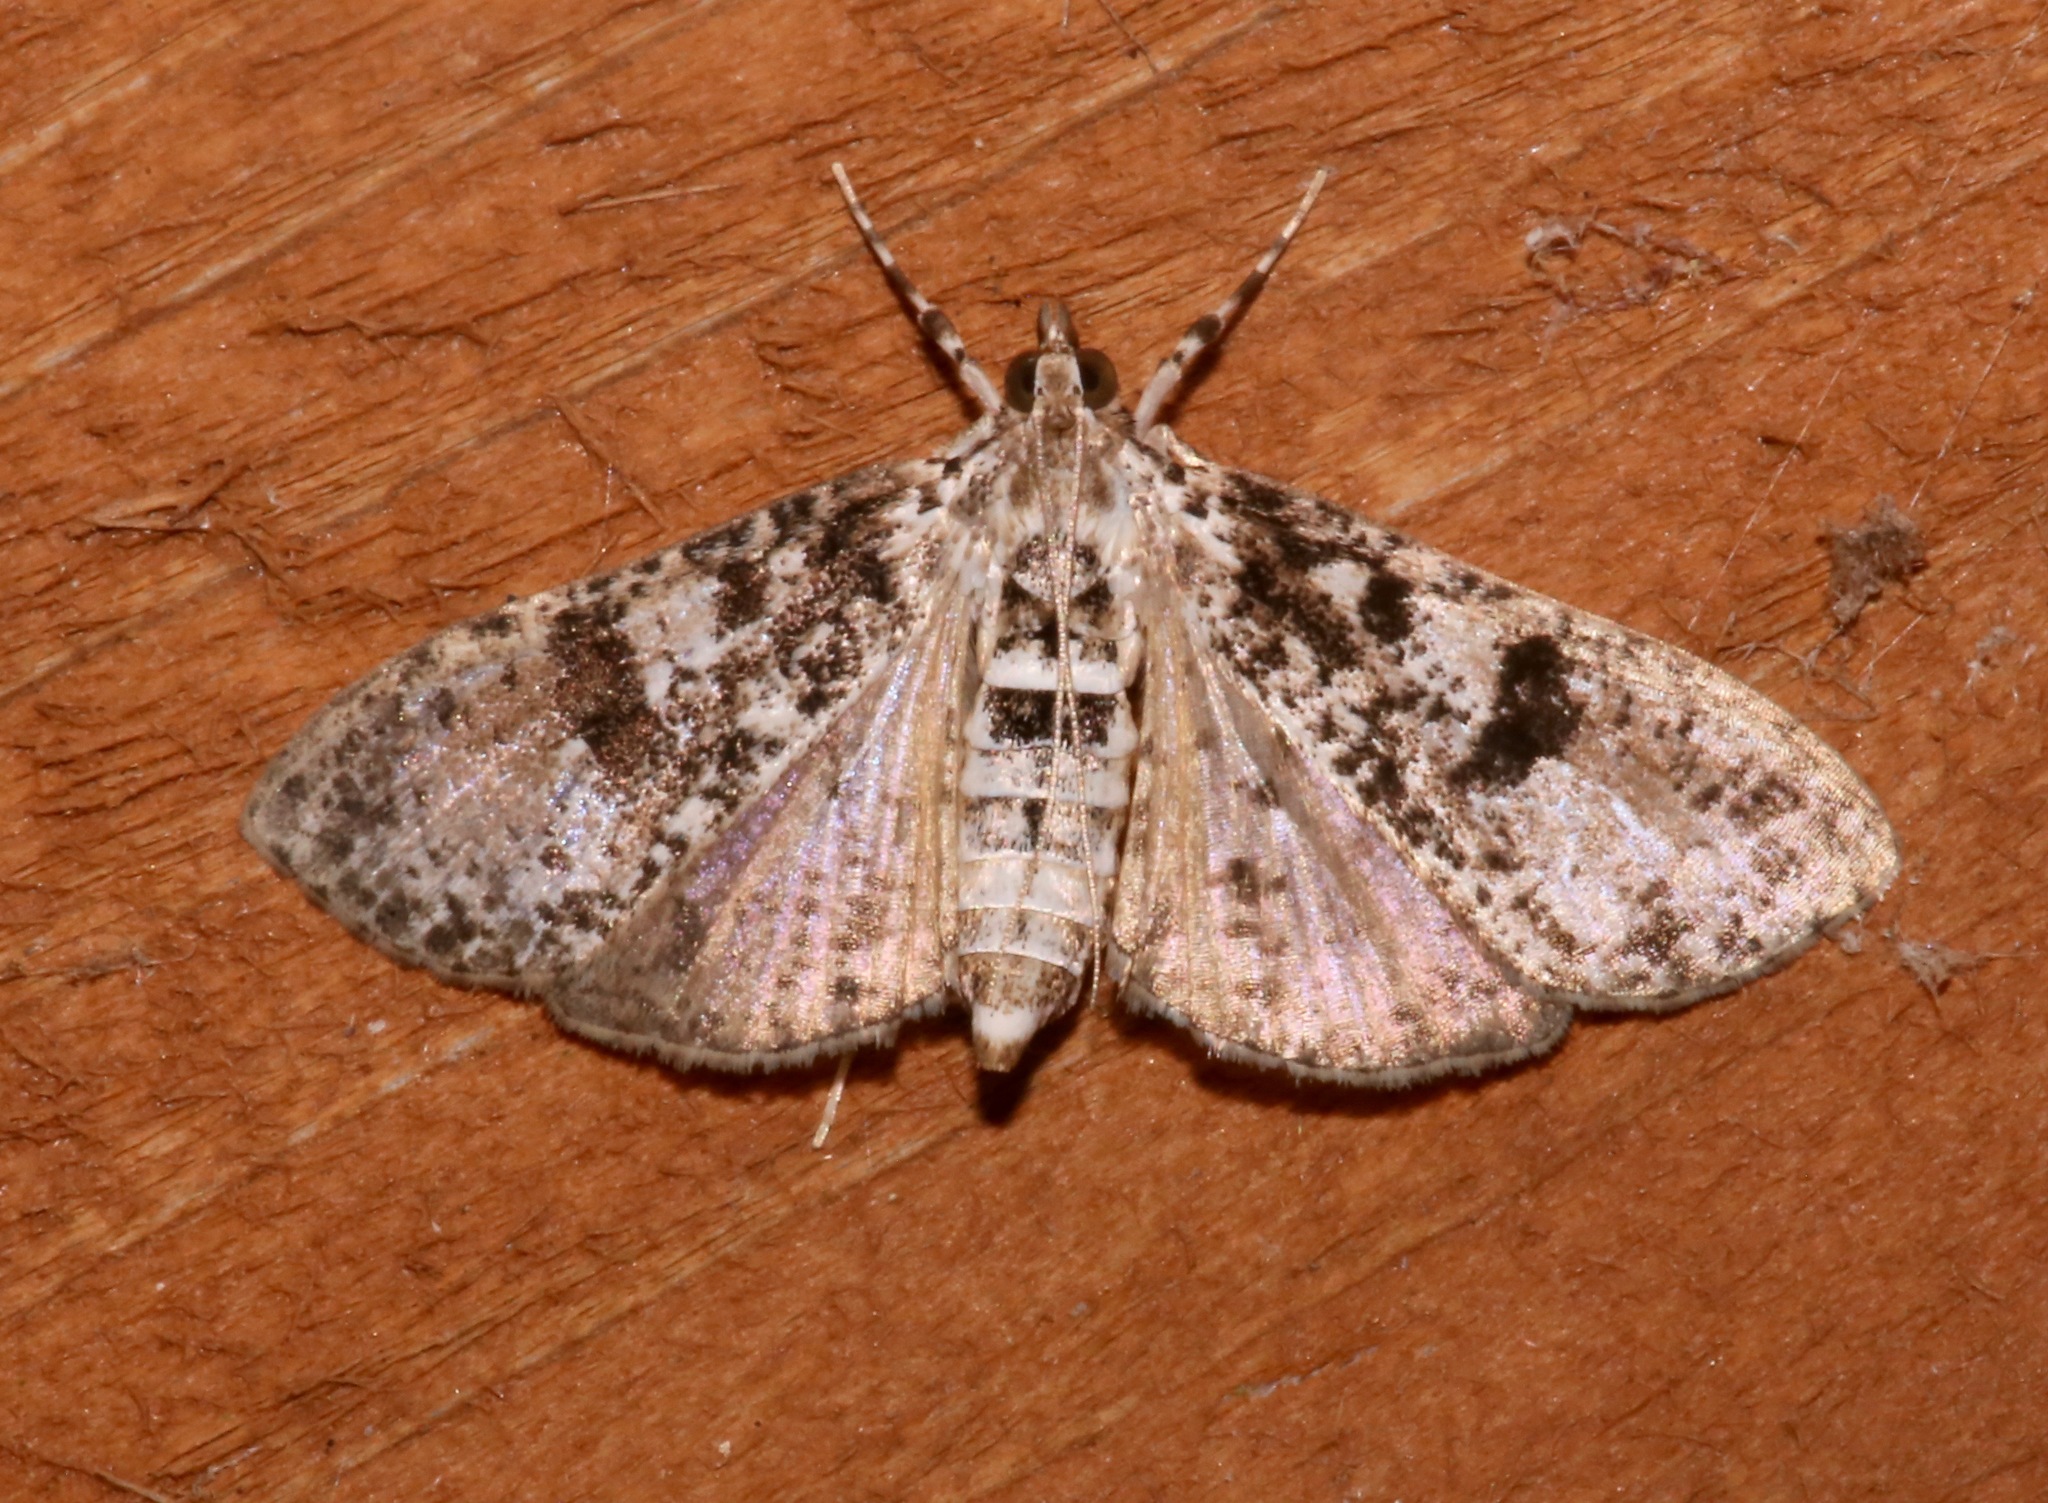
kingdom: Animalia
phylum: Arthropoda
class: Insecta
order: Lepidoptera
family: Crambidae
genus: Palpita
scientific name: Palpita magniferalis
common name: Splendid palpita moth
